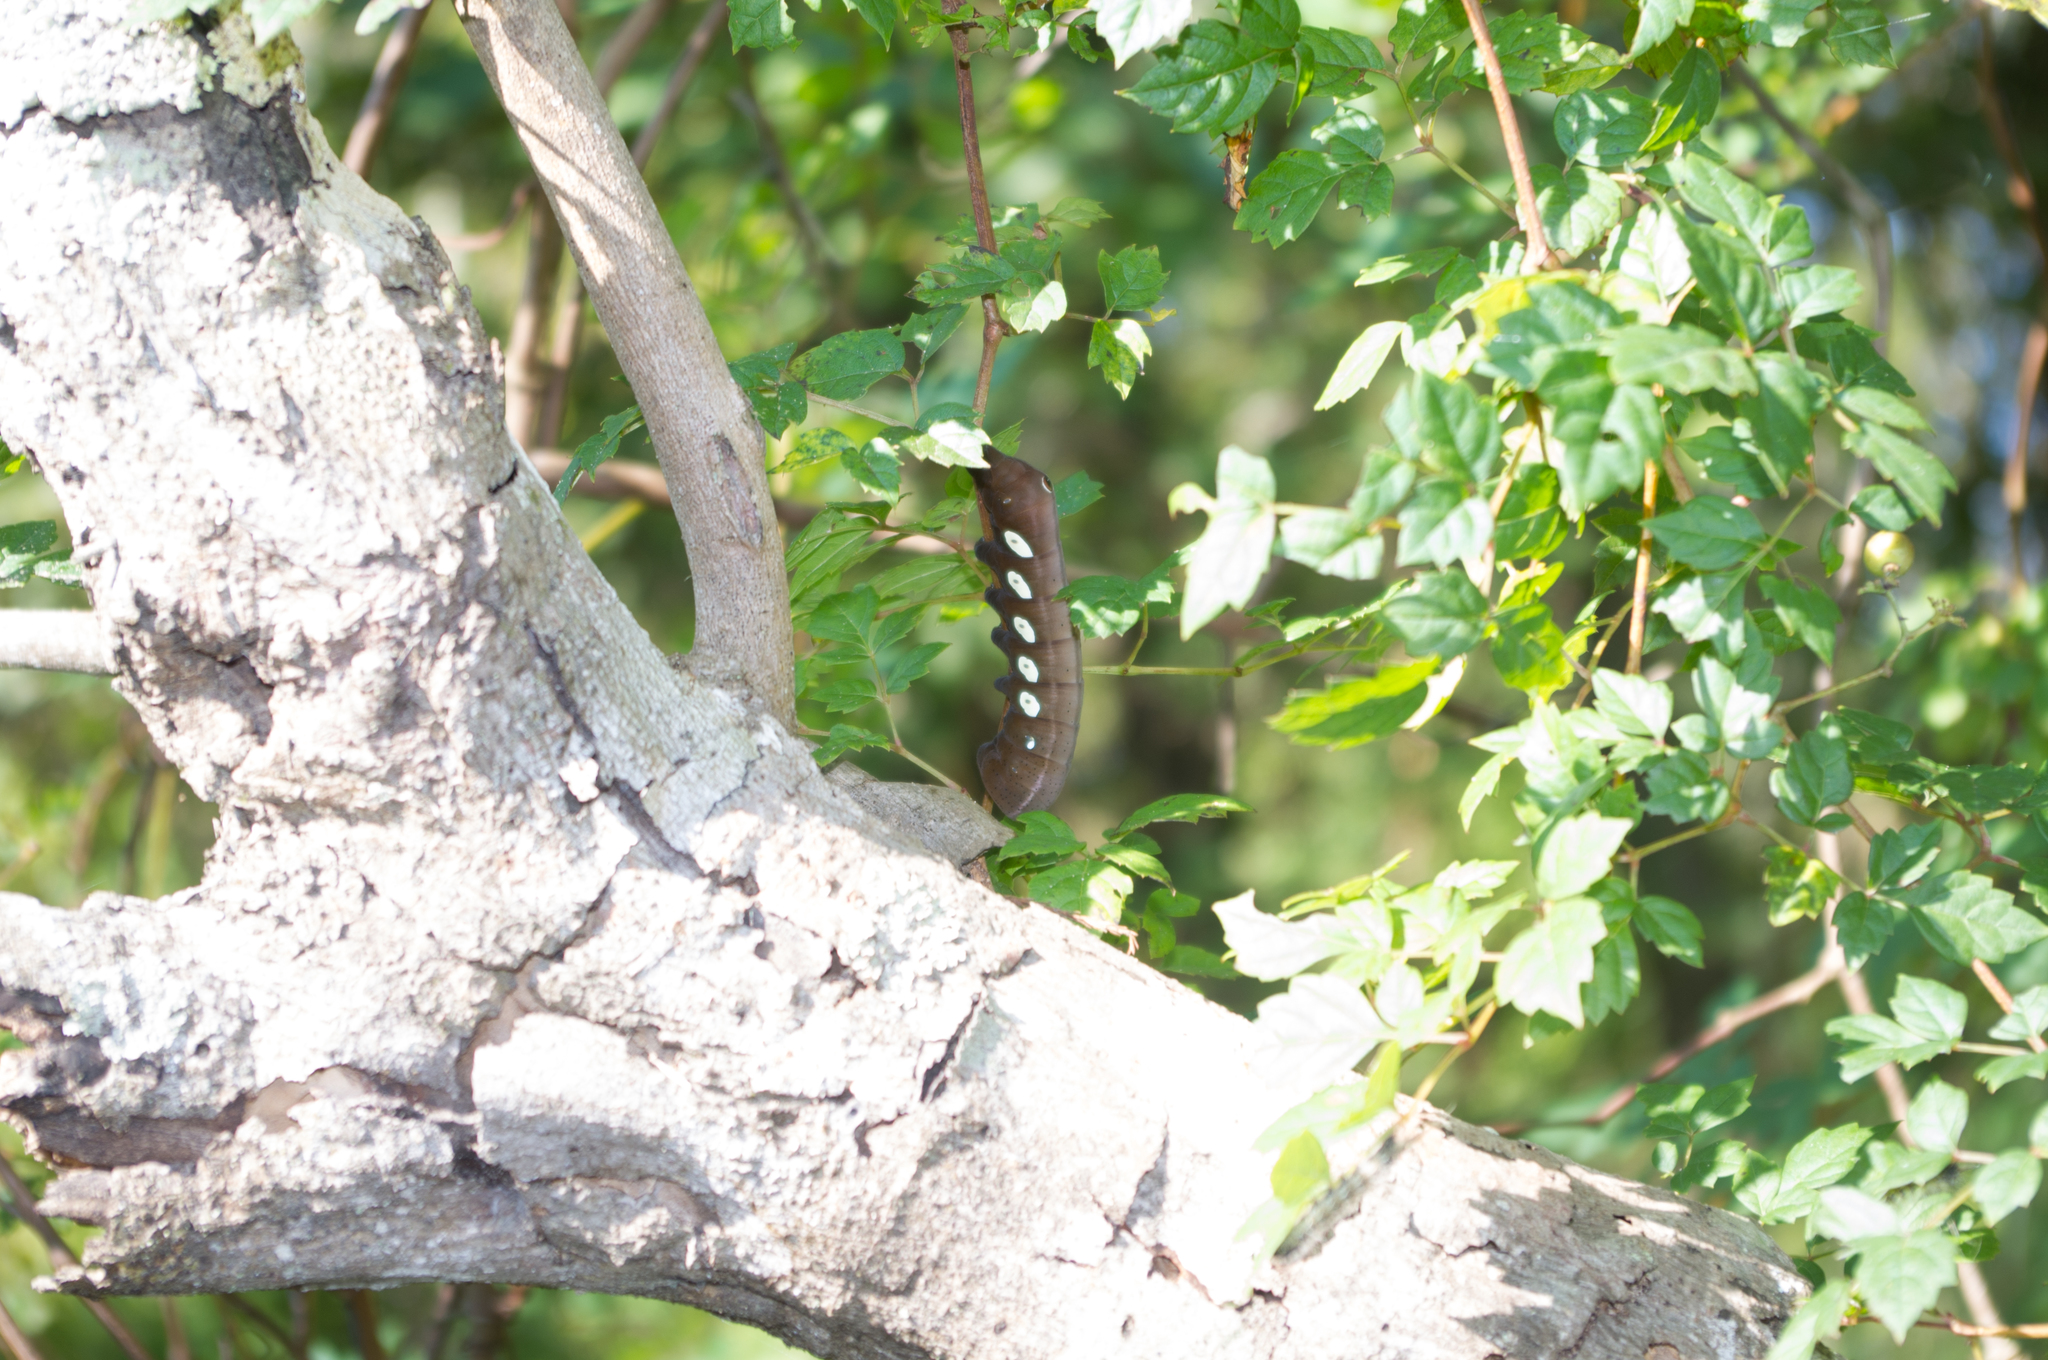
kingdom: Animalia
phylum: Arthropoda
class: Insecta
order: Lepidoptera
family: Sphingidae
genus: Eumorpha
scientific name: Eumorpha pandorus
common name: Pandora sphinx
